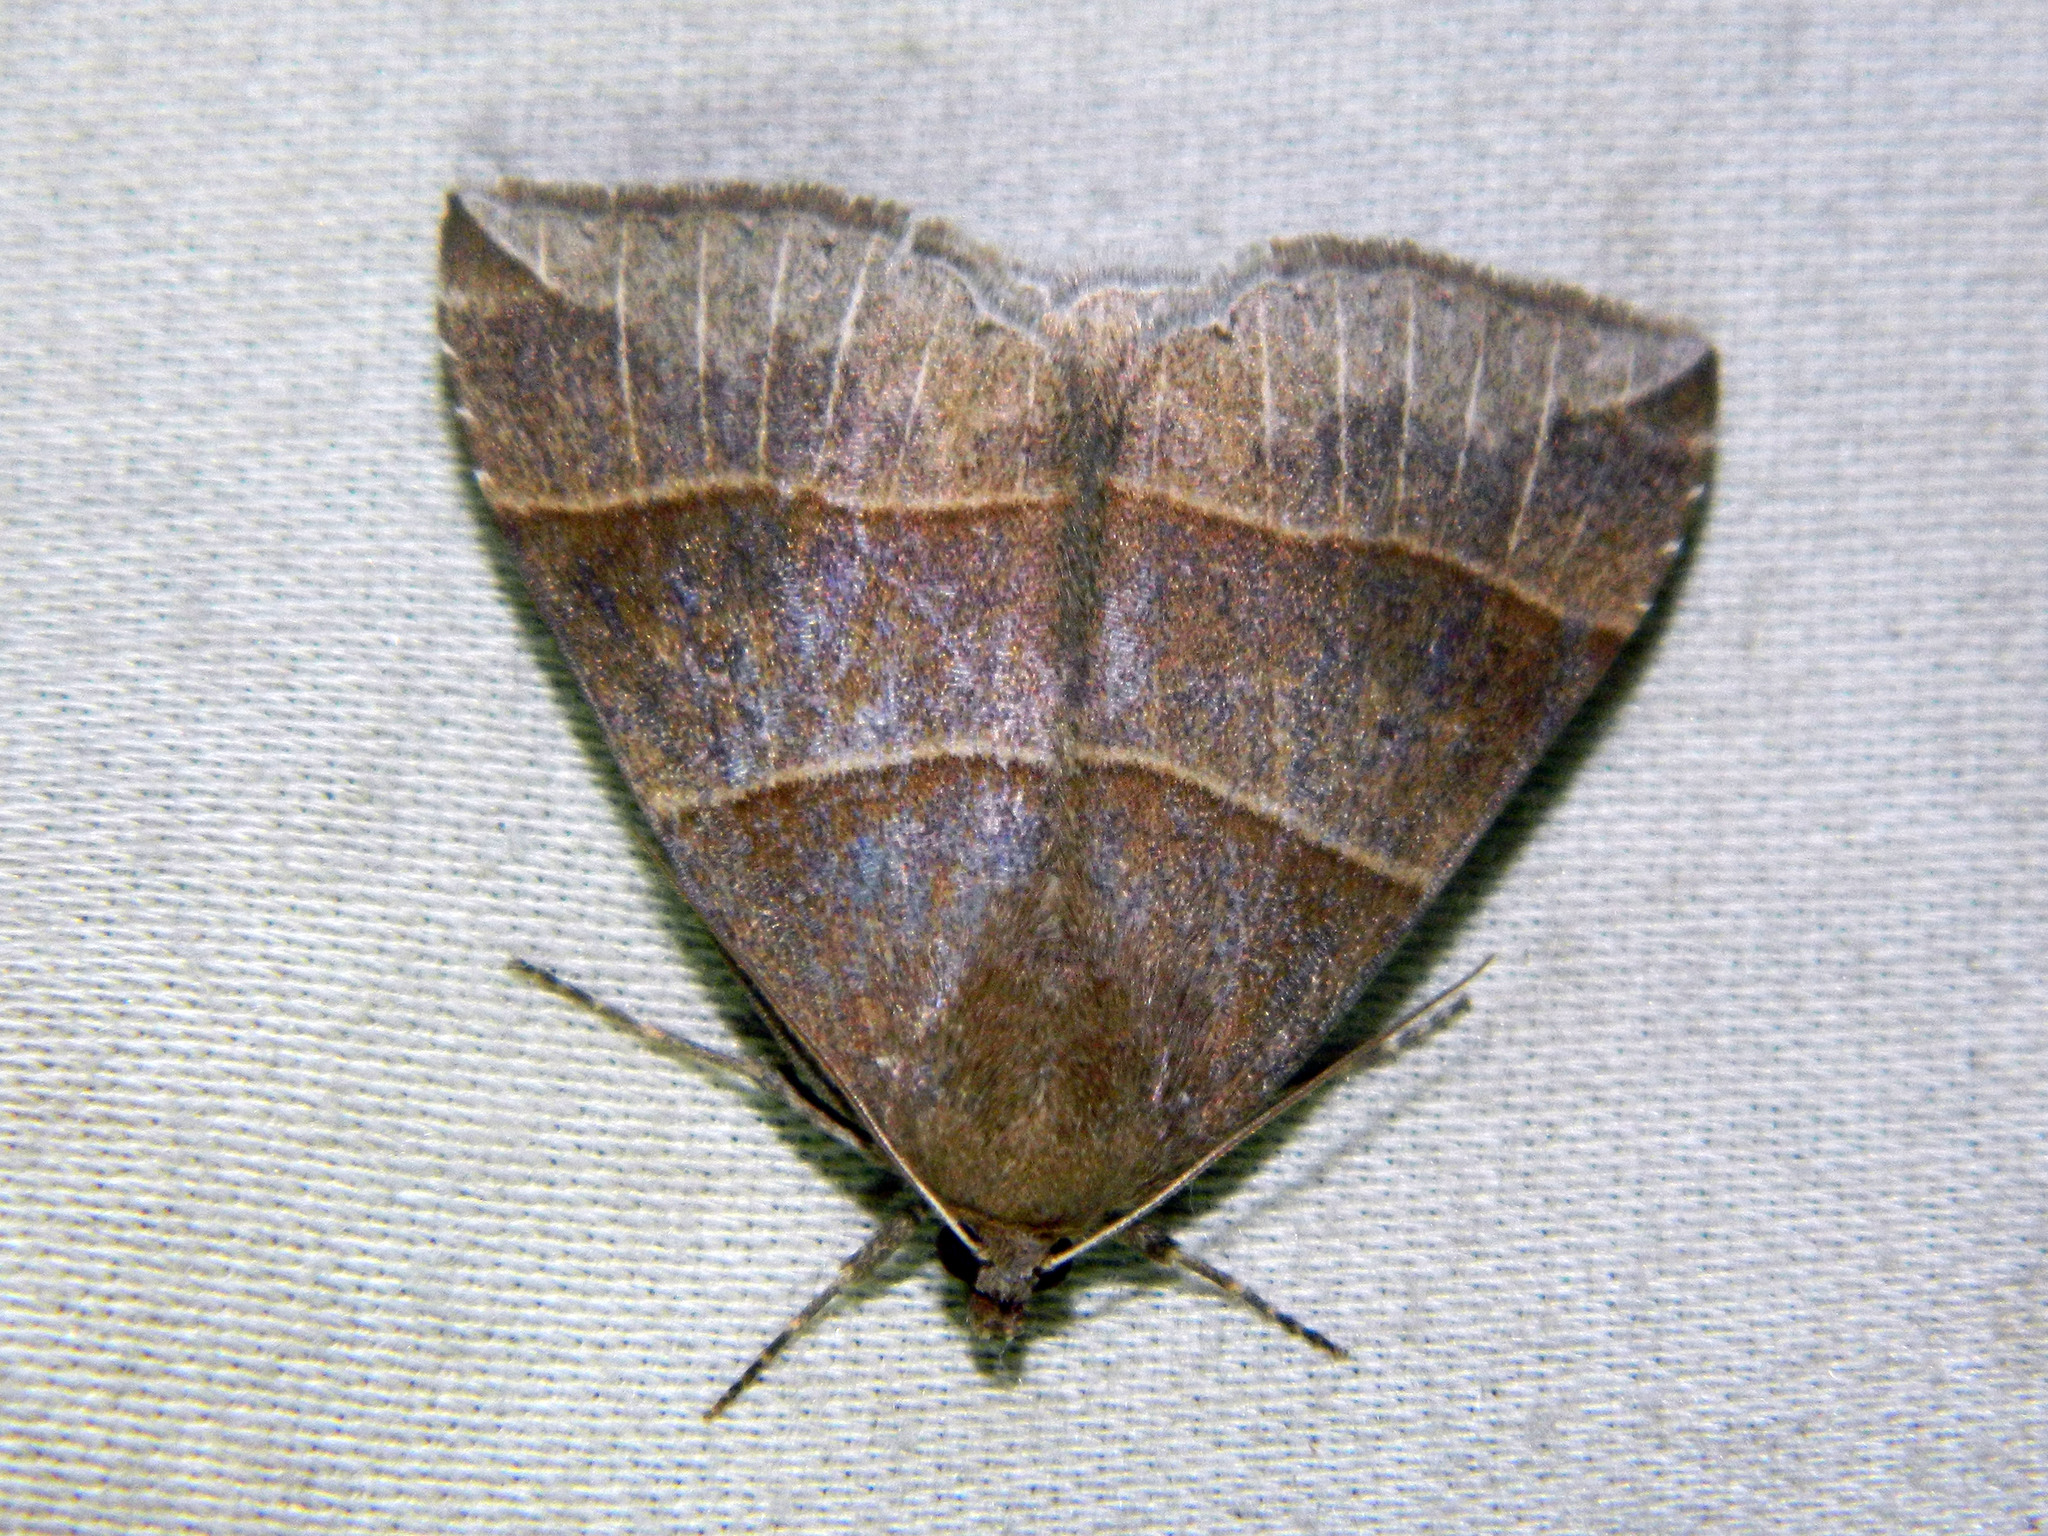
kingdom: Animalia
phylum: Arthropoda
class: Insecta
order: Lepidoptera
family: Erebidae
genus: Parallelia
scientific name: Parallelia bistriaris
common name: Maple looper moth
